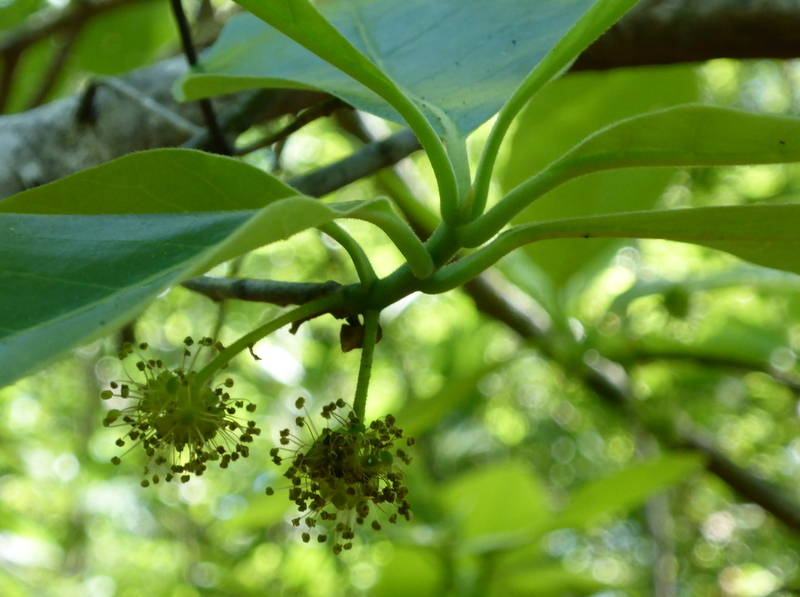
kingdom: Plantae
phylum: Tracheophyta
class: Magnoliopsida
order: Cornales
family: Nyssaceae
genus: Nyssa
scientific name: Nyssa ogeche
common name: Ogeechee tupelo
